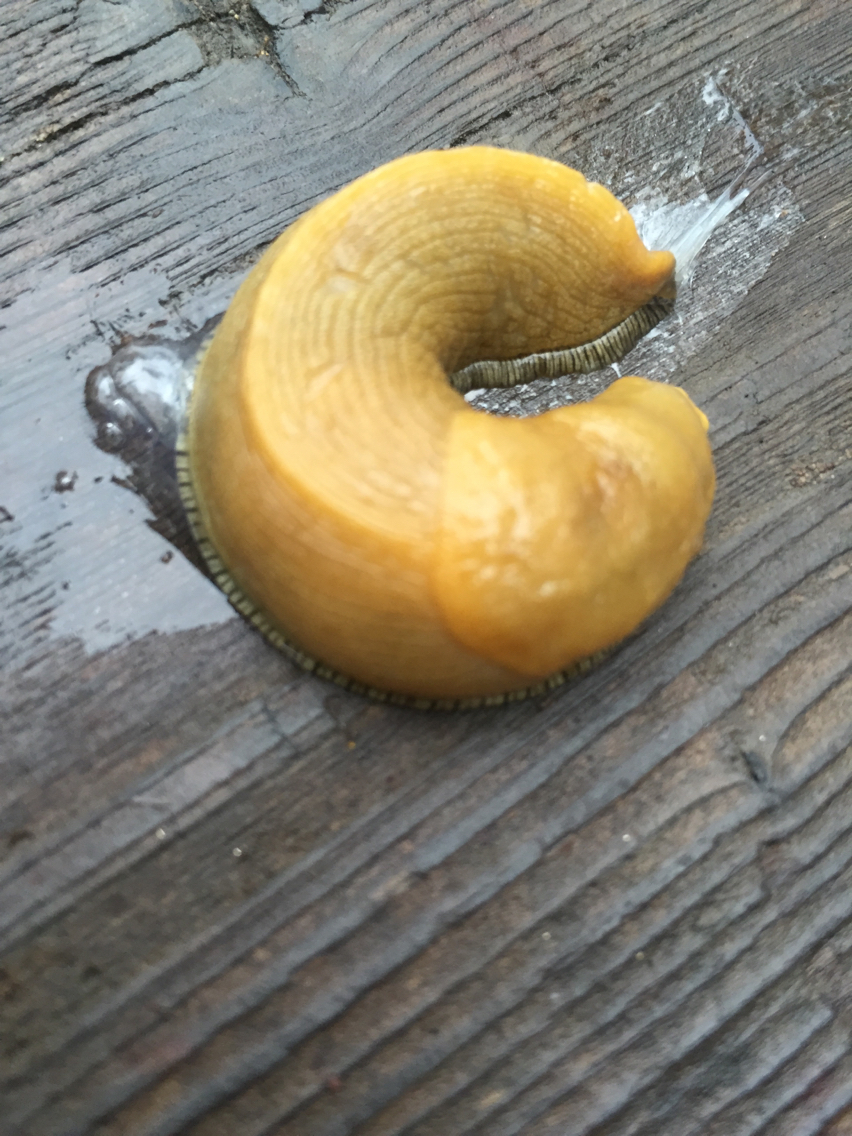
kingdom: Animalia
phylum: Mollusca
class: Gastropoda
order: Stylommatophora
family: Ariolimacidae
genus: Ariolimax
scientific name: Ariolimax buttoni
